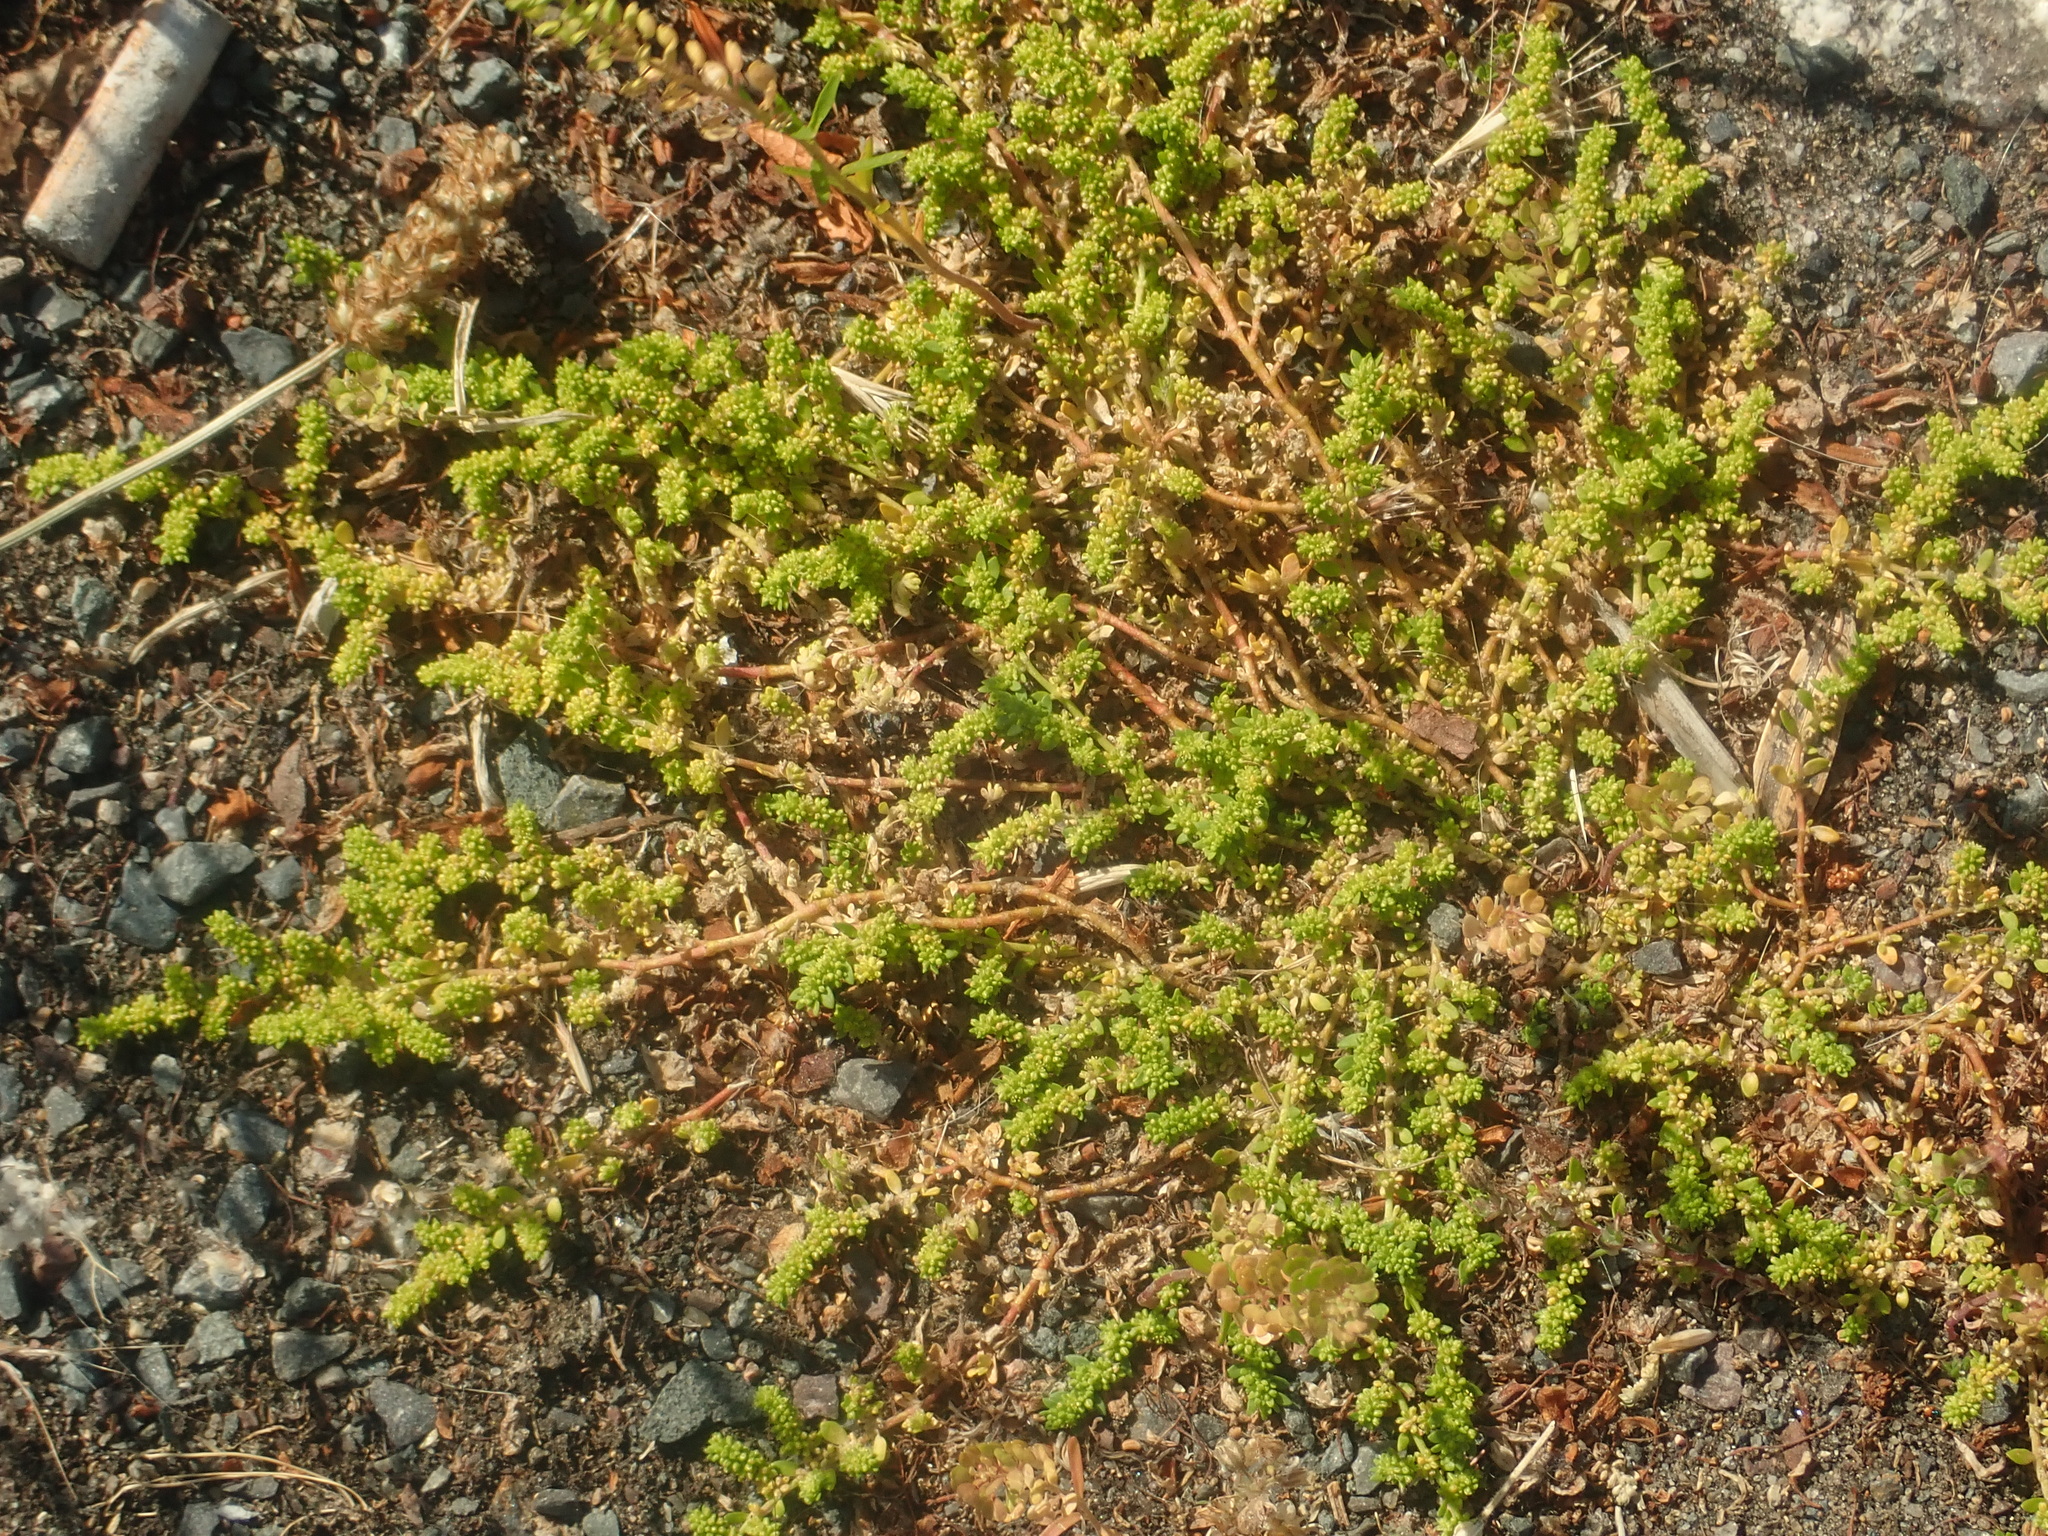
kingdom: Plantae
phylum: Tracheophyta
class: Magnoliopsida
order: Caryophyllales
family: Caryophyllaceae
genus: Herniaria
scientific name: Herniaria glabra
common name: Smooth rupturewort
